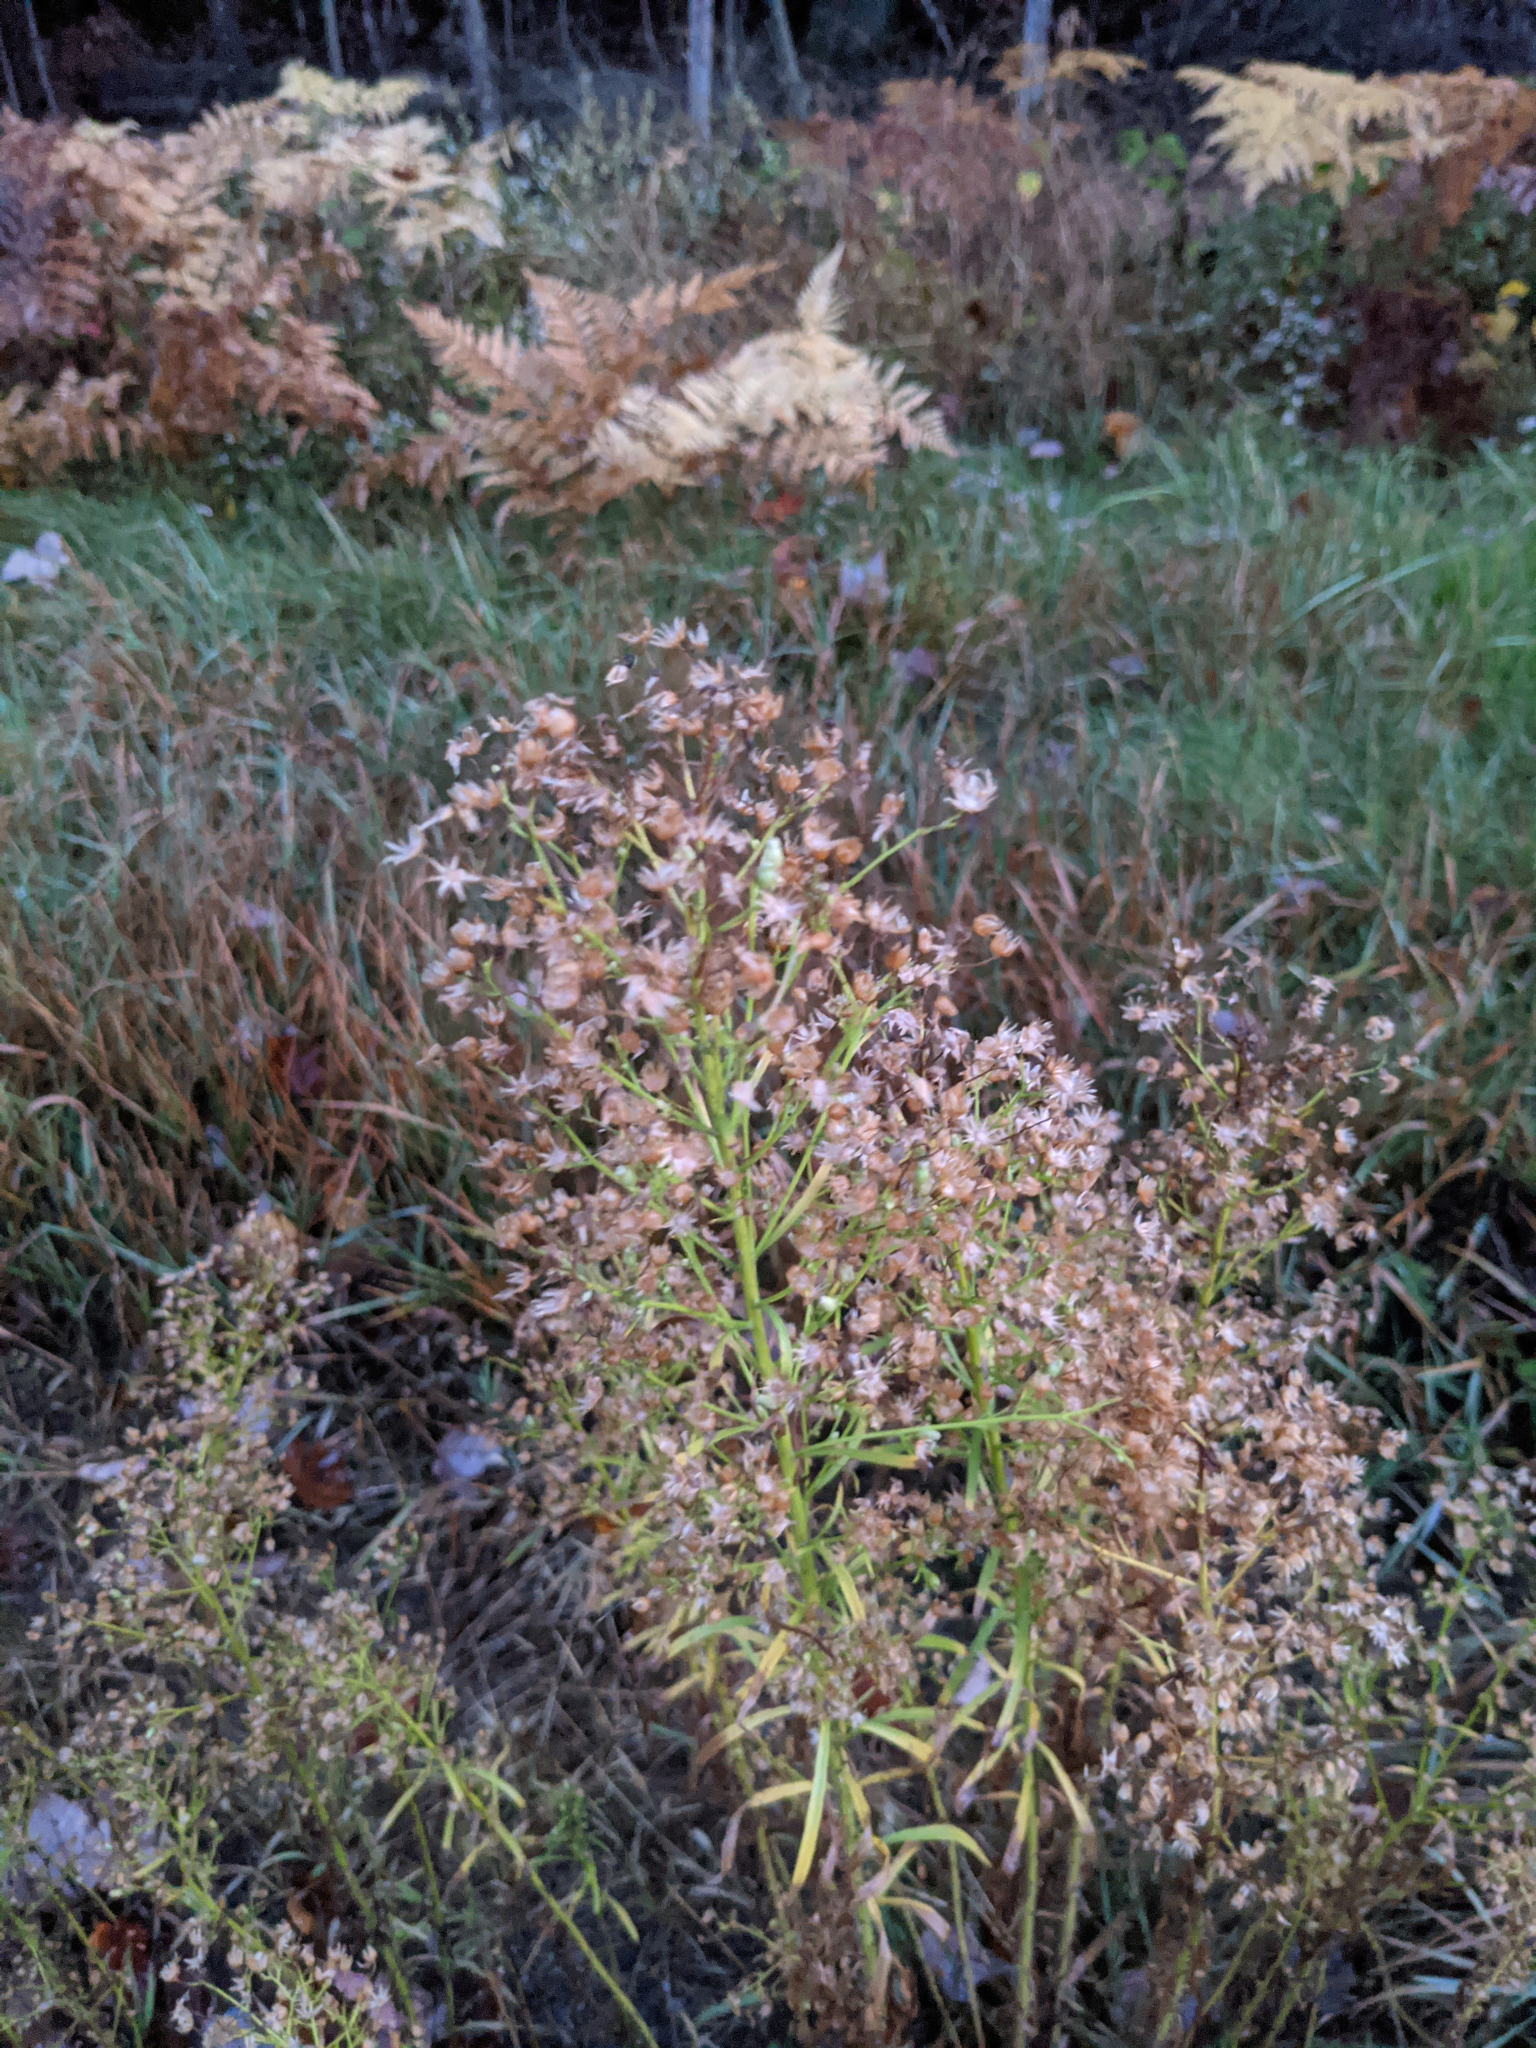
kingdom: Plantae
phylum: Tracheophyta
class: Magnoliopsida
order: Asterales
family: Asteraceae
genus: Erigeron
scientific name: Erigeron canadensis
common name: Canadian fleabane
